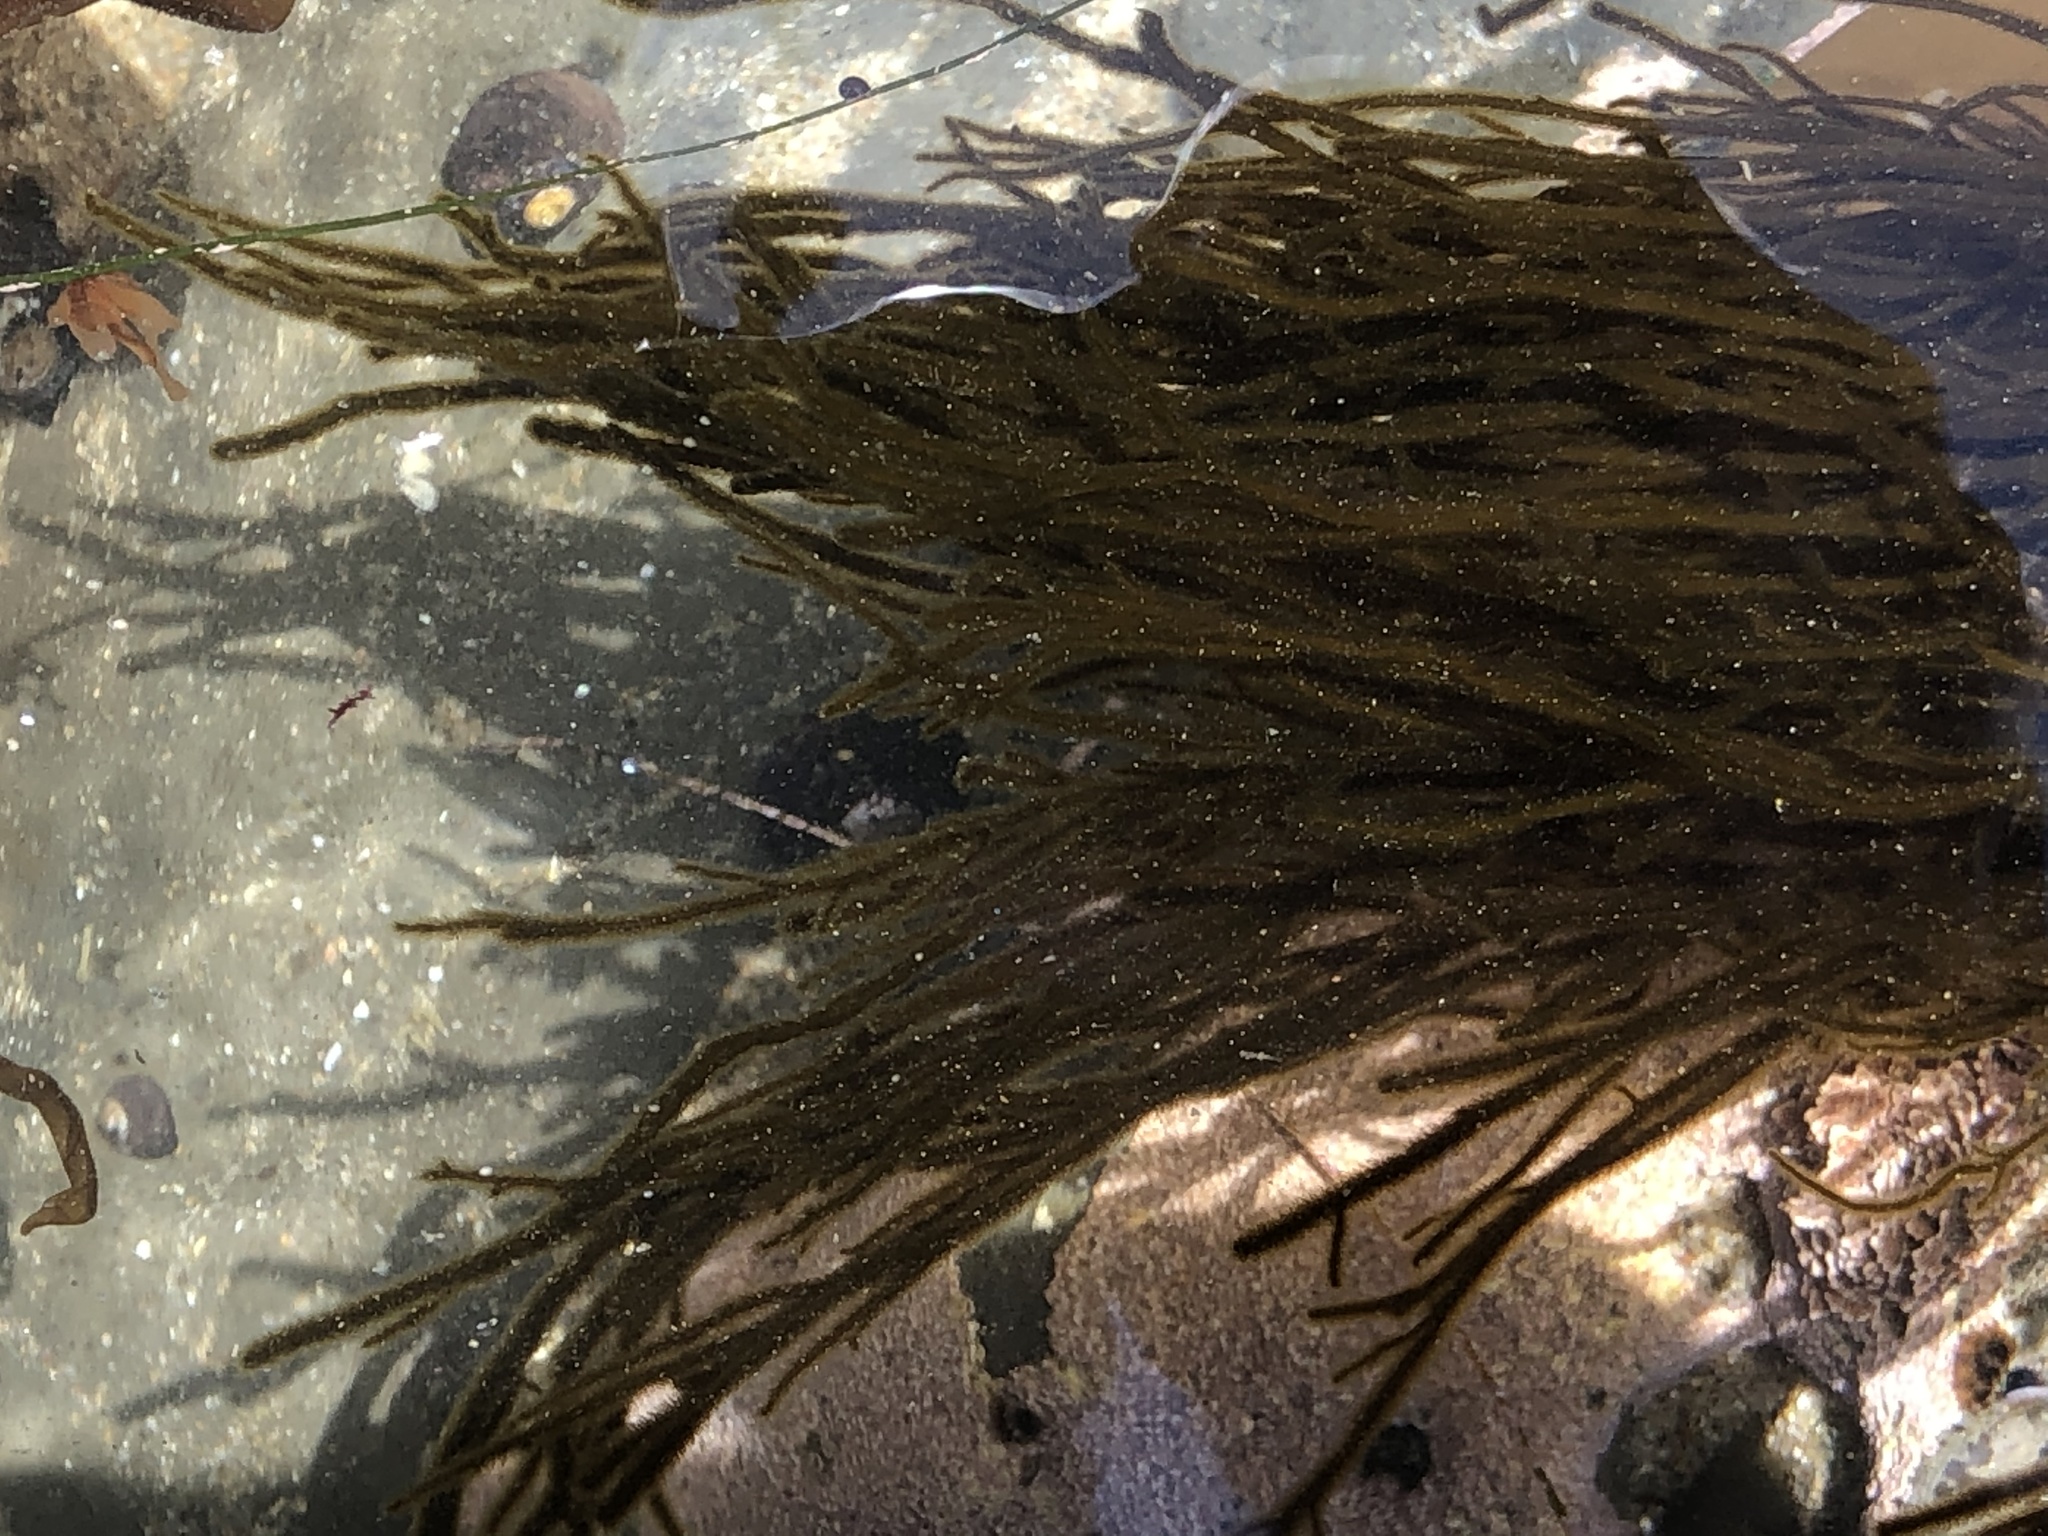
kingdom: Chromista
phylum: Ochrophyta
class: Phaeophyceae
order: Ectocarpales
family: Chordariaceae
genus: Haplogloia
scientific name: Haplogloia andersonii
